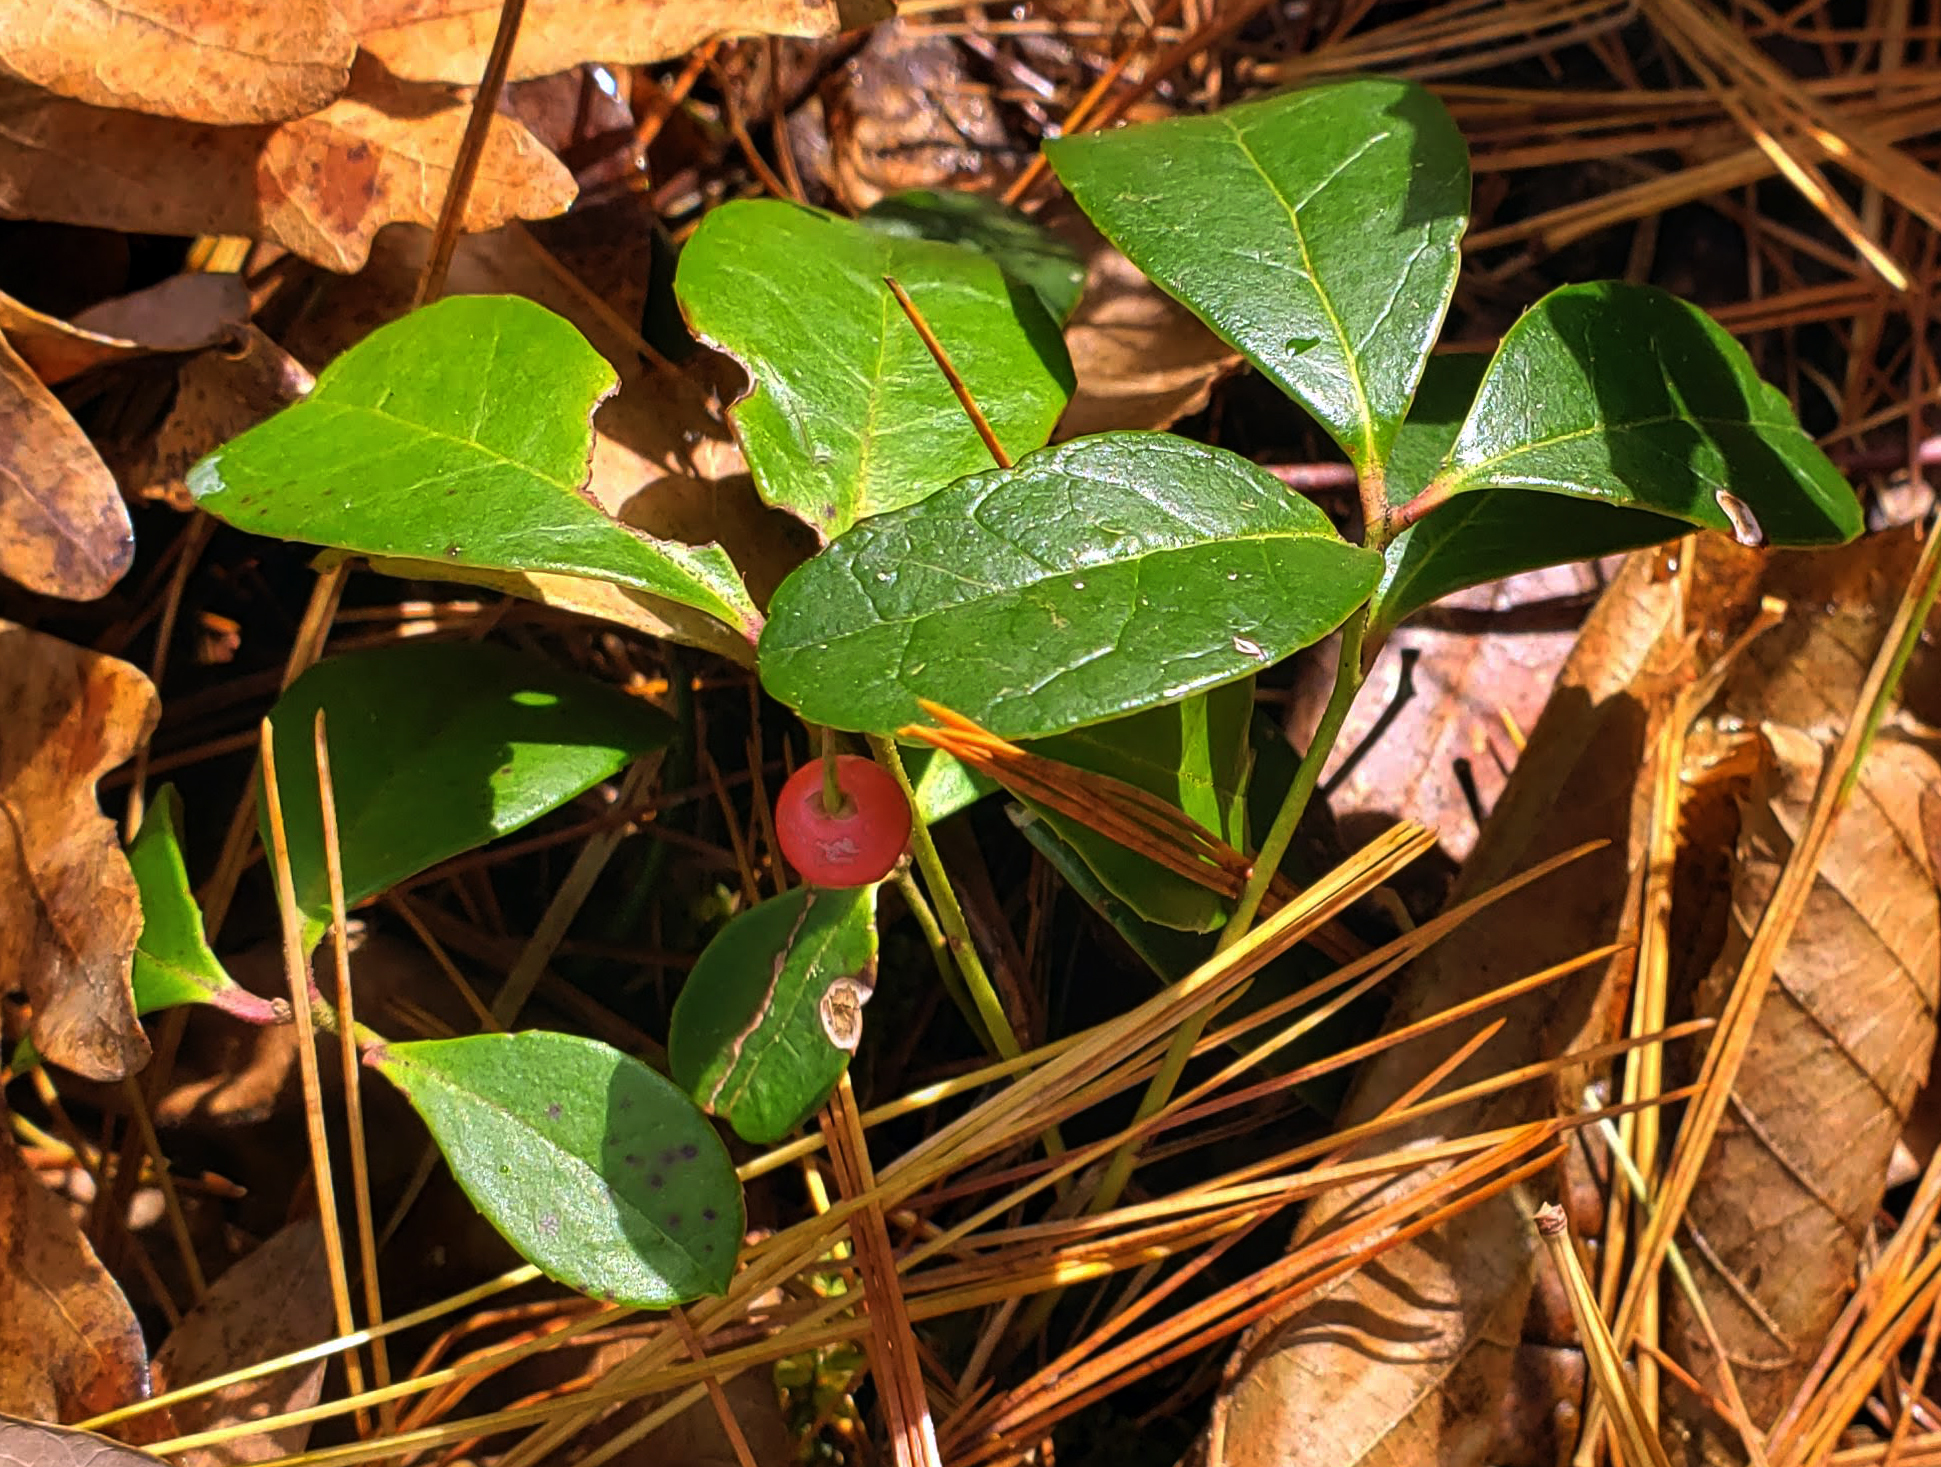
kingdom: Plantae
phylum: Tracheophyta
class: Magnoliopsida
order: Ericales
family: Ericaceae
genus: Gaultheria
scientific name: Gaultheria procumbens
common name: Checkerberry
